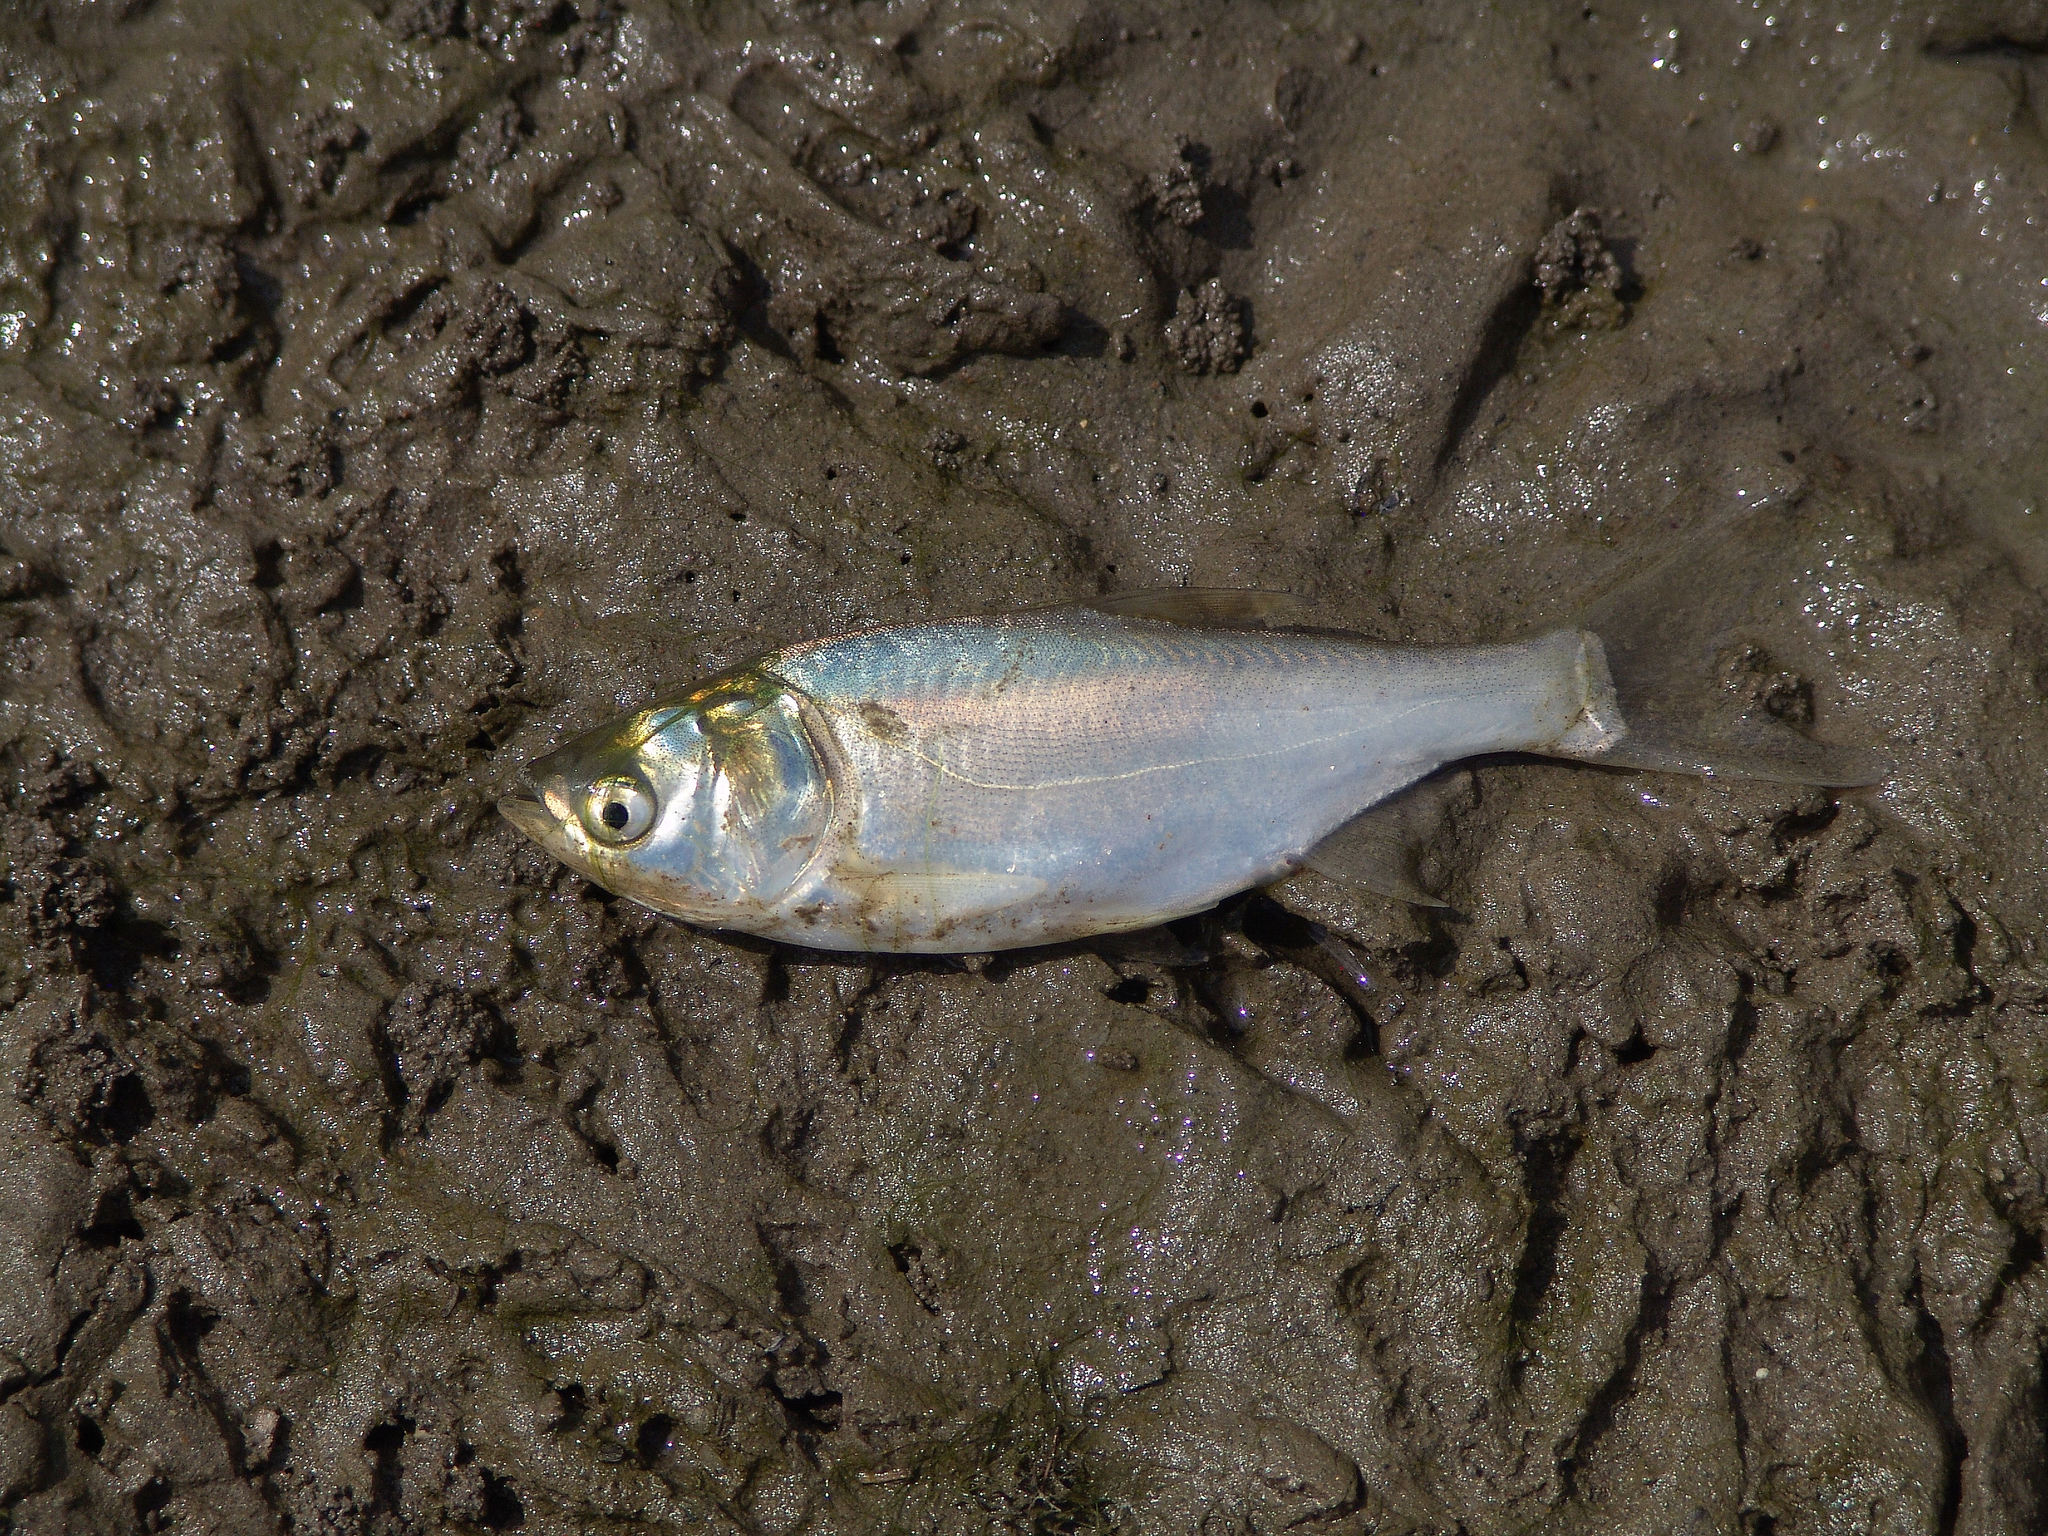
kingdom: Animalia
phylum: Chordata
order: Cypriniformes
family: Cyprinidae
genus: Hypophthalmichthys
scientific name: Hypophthalmichthys molitrix
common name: Silver carp
